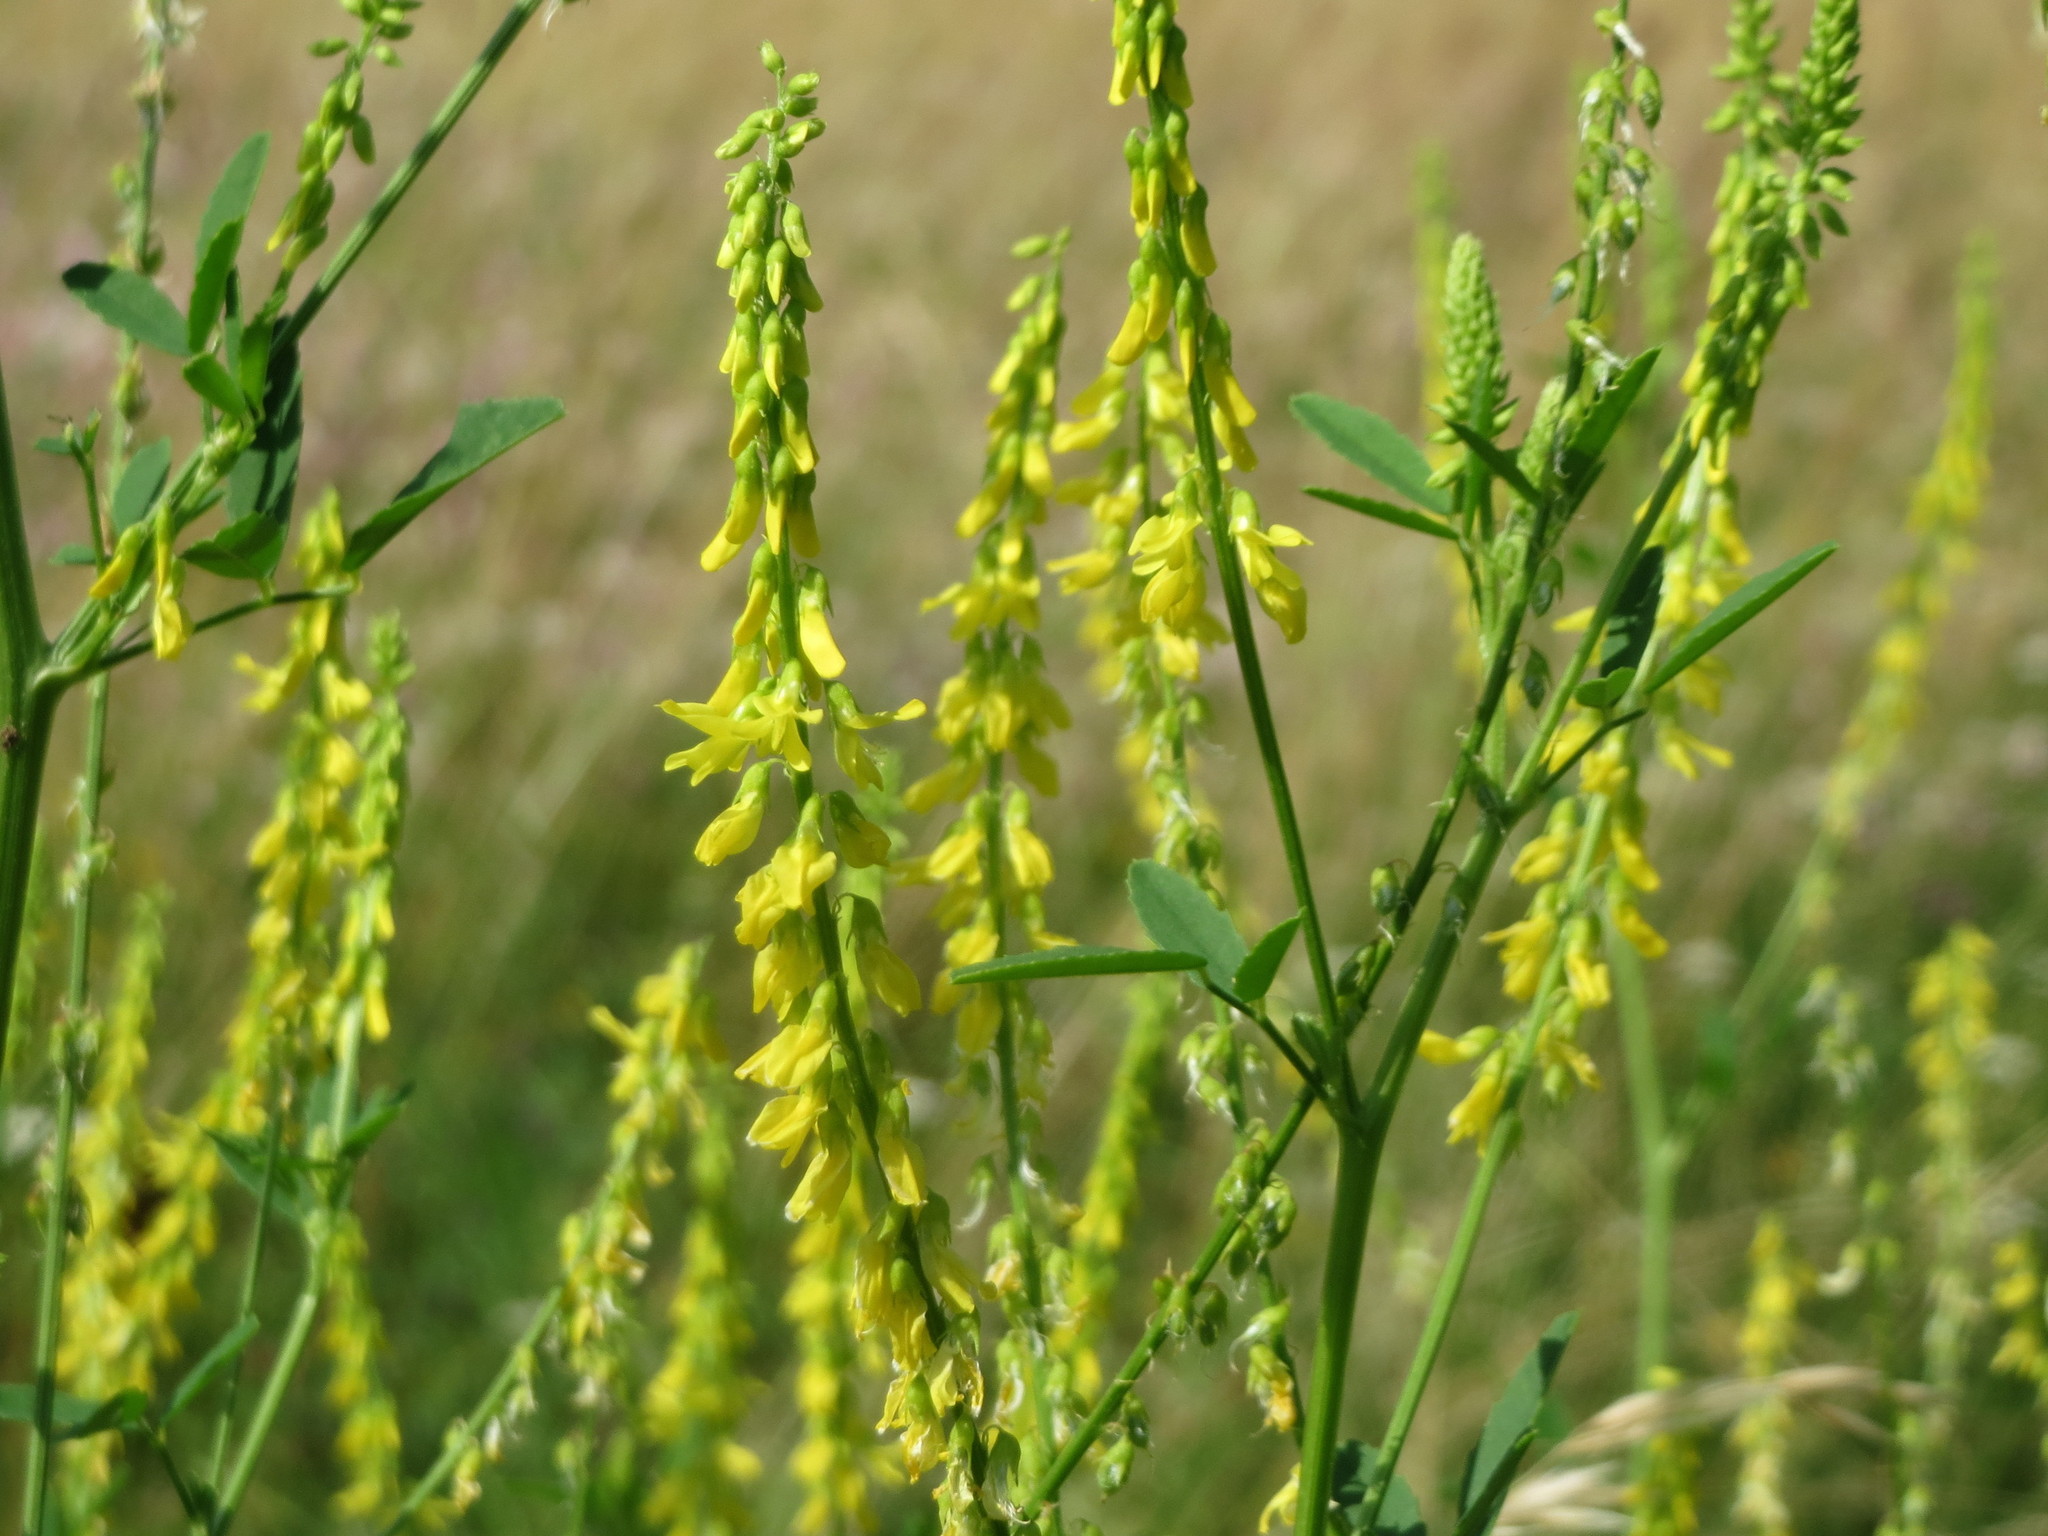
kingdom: Plantae
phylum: Tracheophyta
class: Magnoliopsida
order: Fabales
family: Fabaceae
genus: Melilotus
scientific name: Melilotus officinalis
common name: Sweetclover
